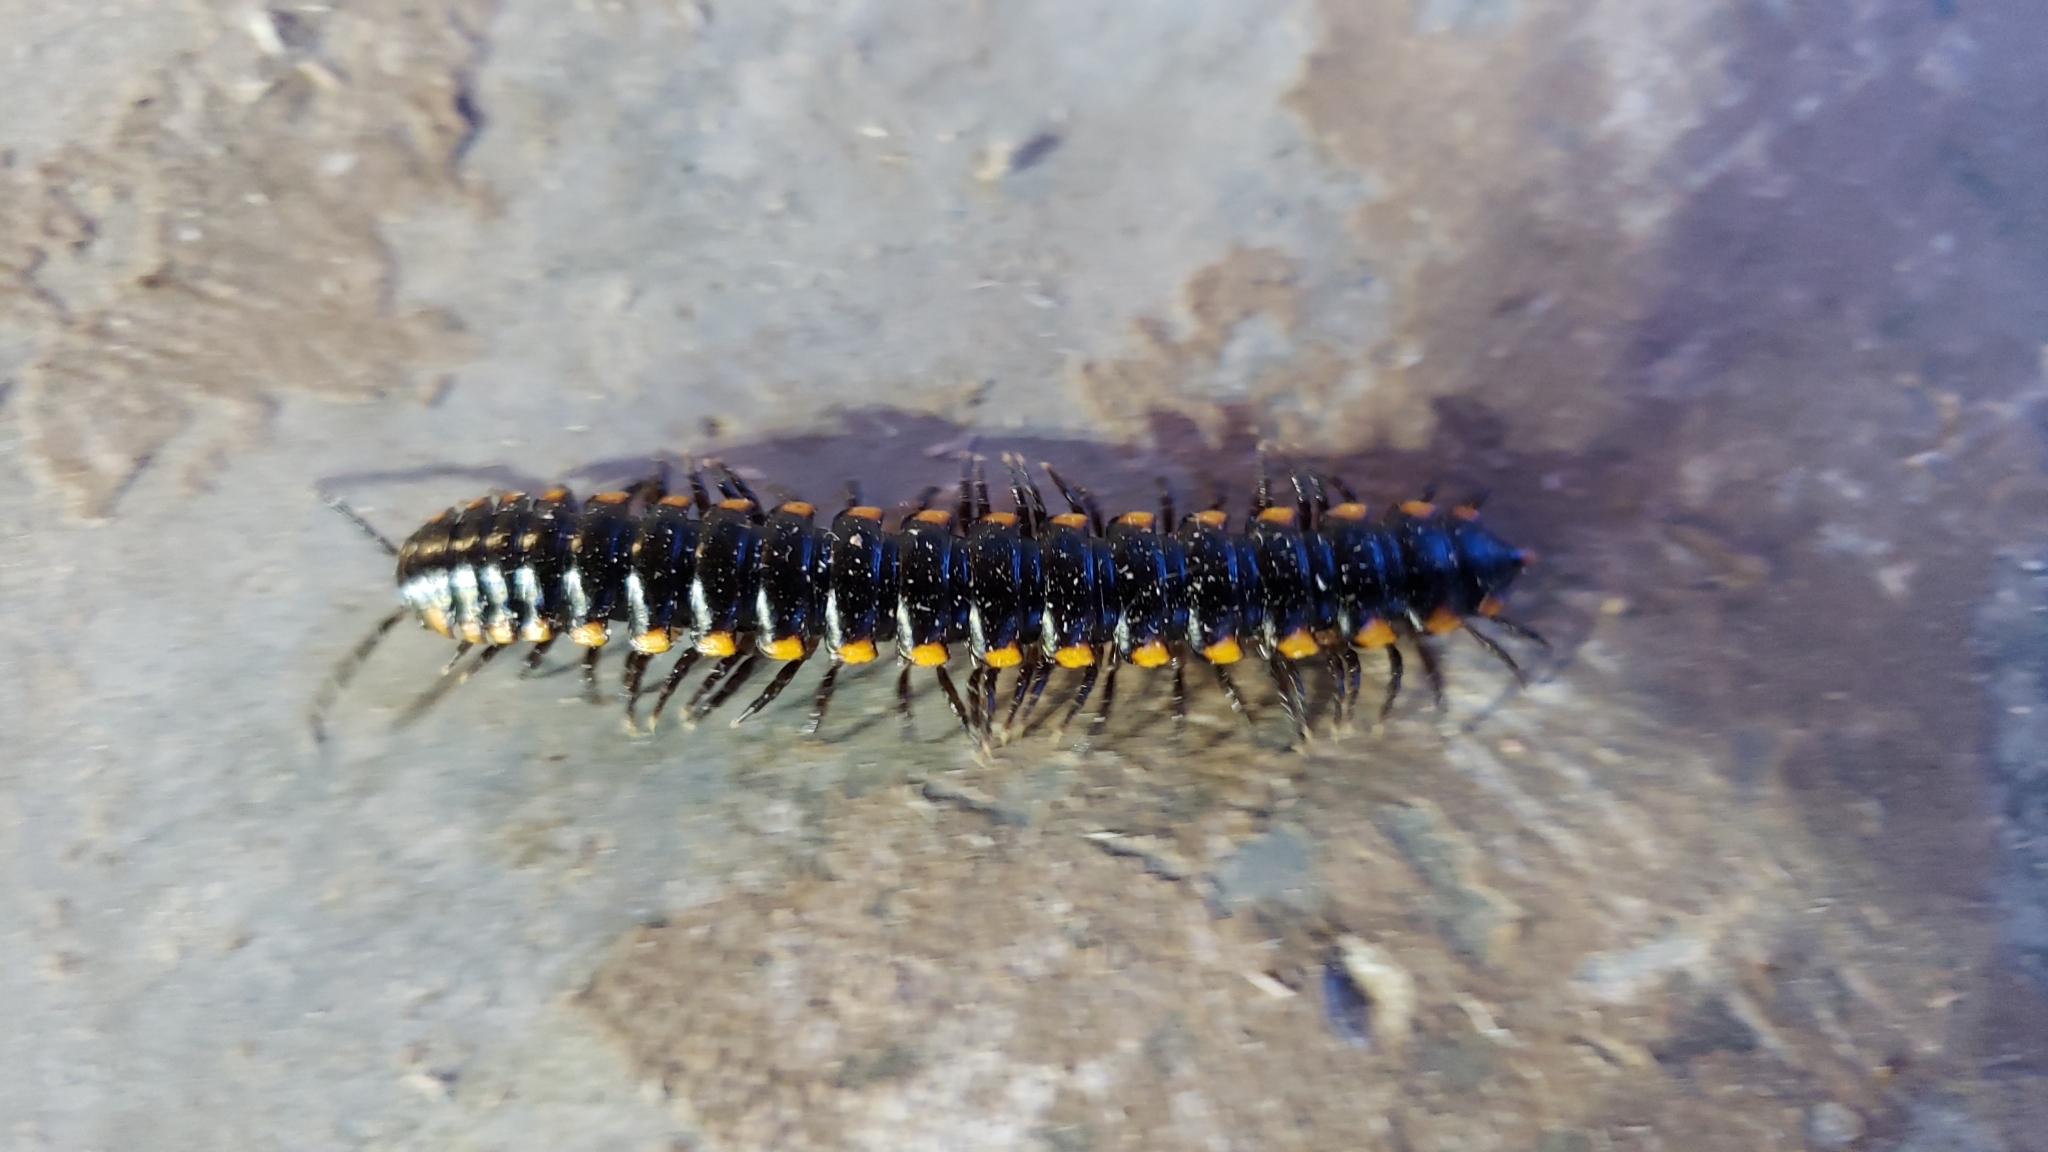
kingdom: Animalia
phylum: Arthropoda
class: Diplopoda
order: Polydesmida
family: Xystodesmidae
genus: Harpaphe
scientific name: Harpaphe haydeniana
